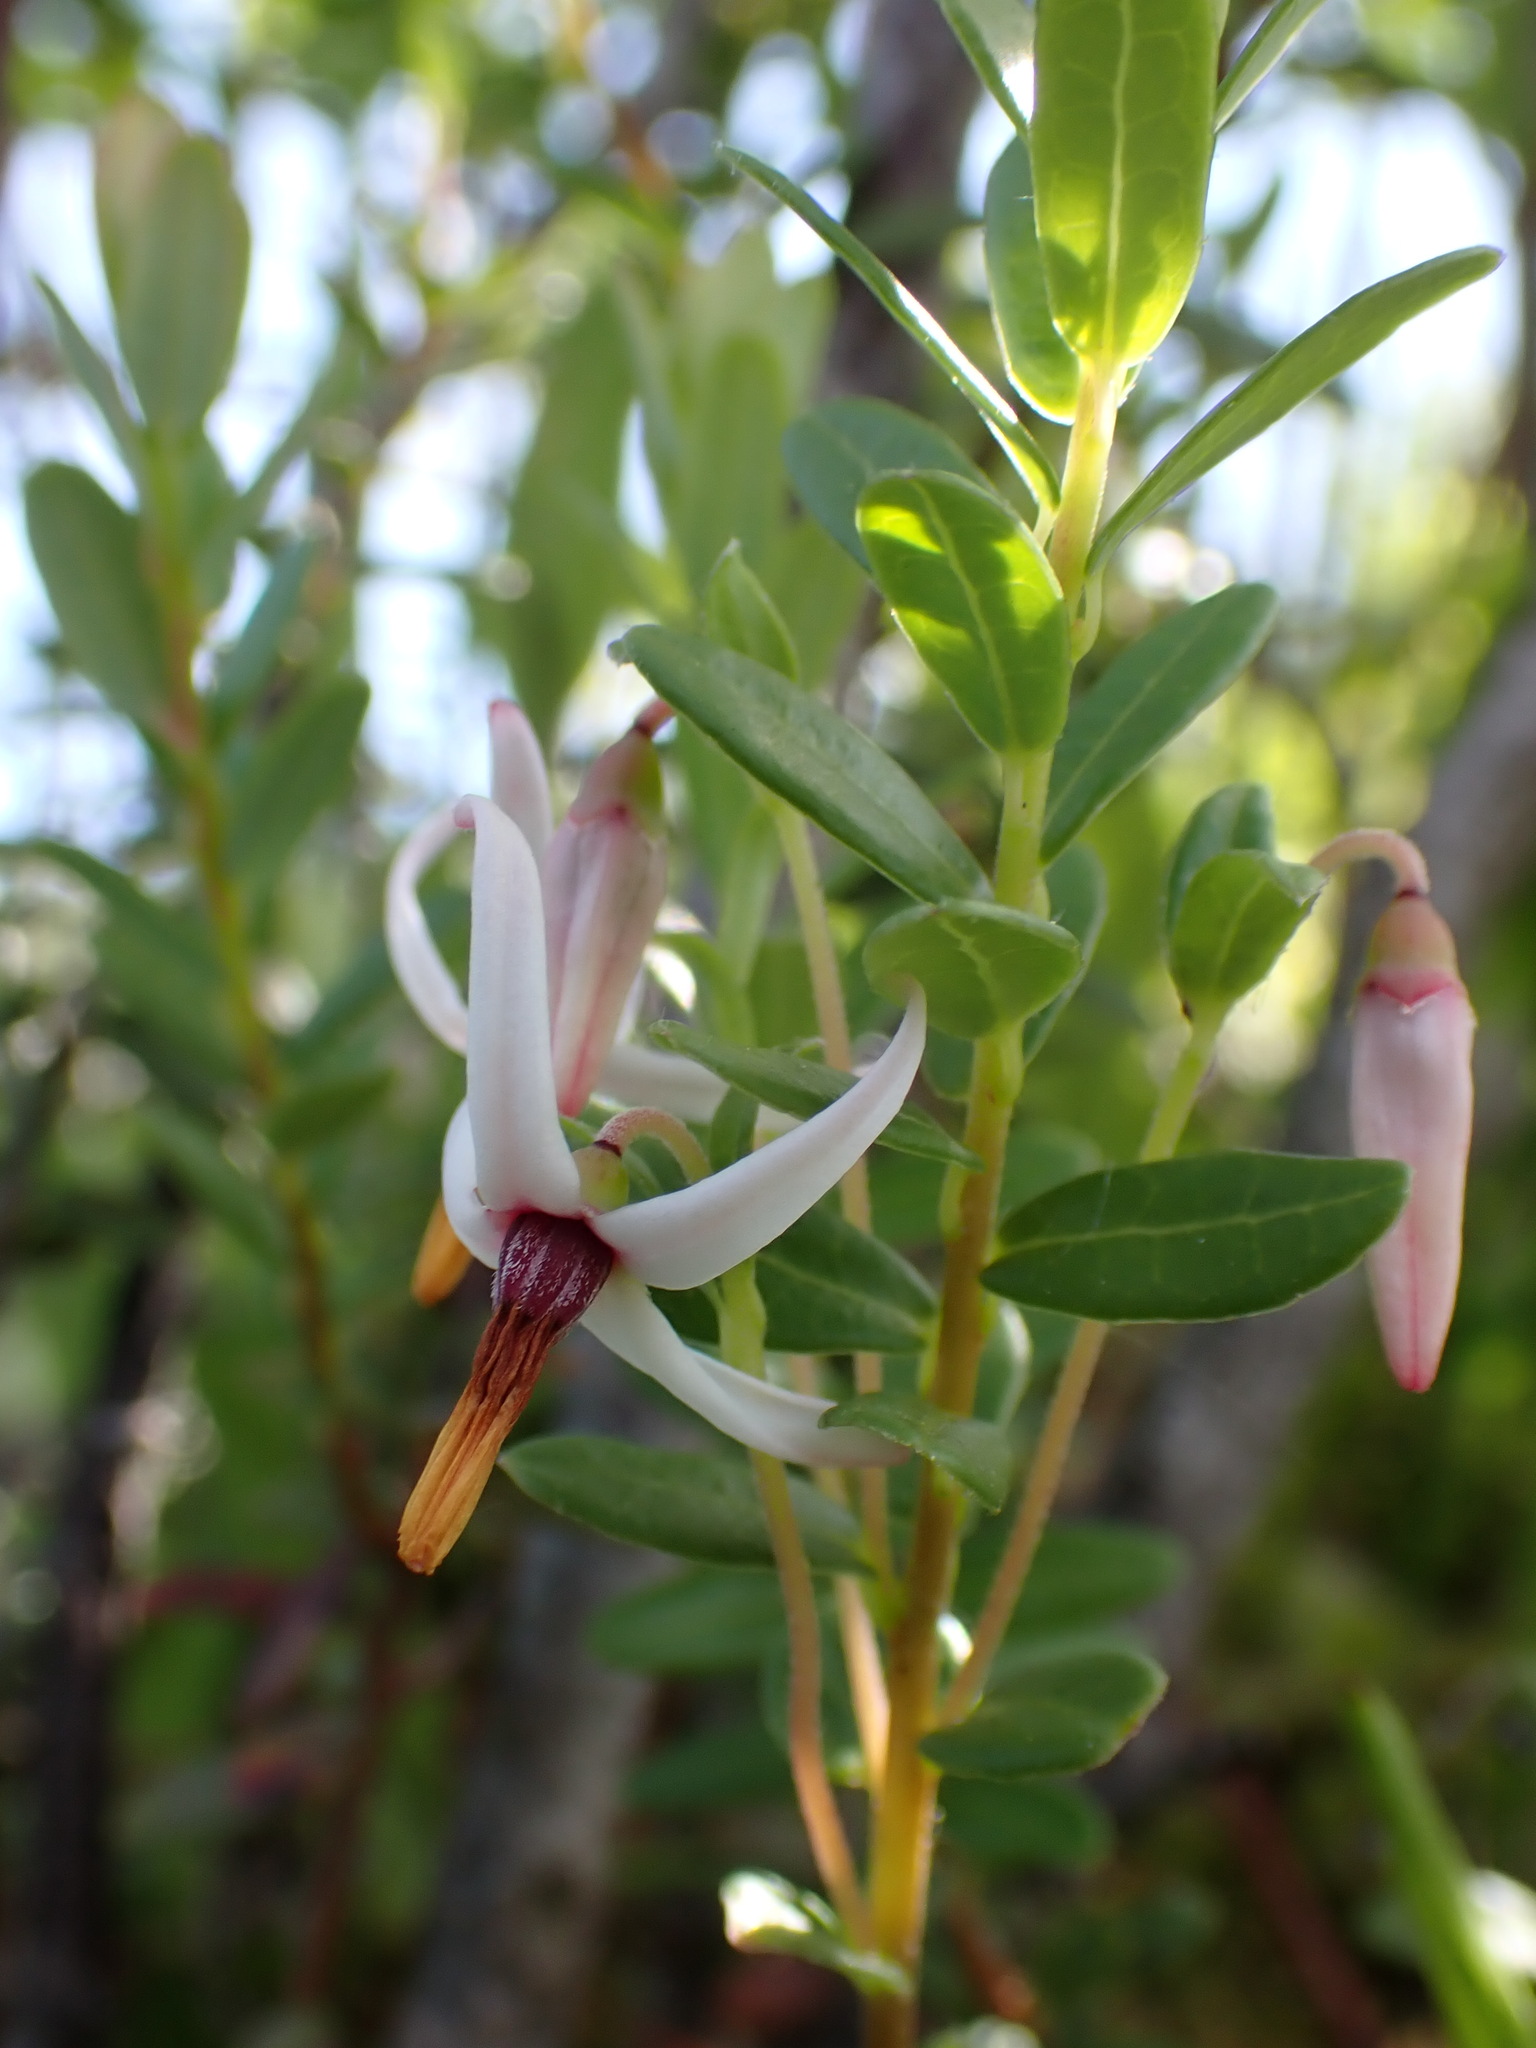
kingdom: Plantae
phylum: Tracheophyta
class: Magnoliopsida
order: Ericales
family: Ericaceae
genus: Vaccinium
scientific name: Vaccinium macrocarpon
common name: American cranberry
